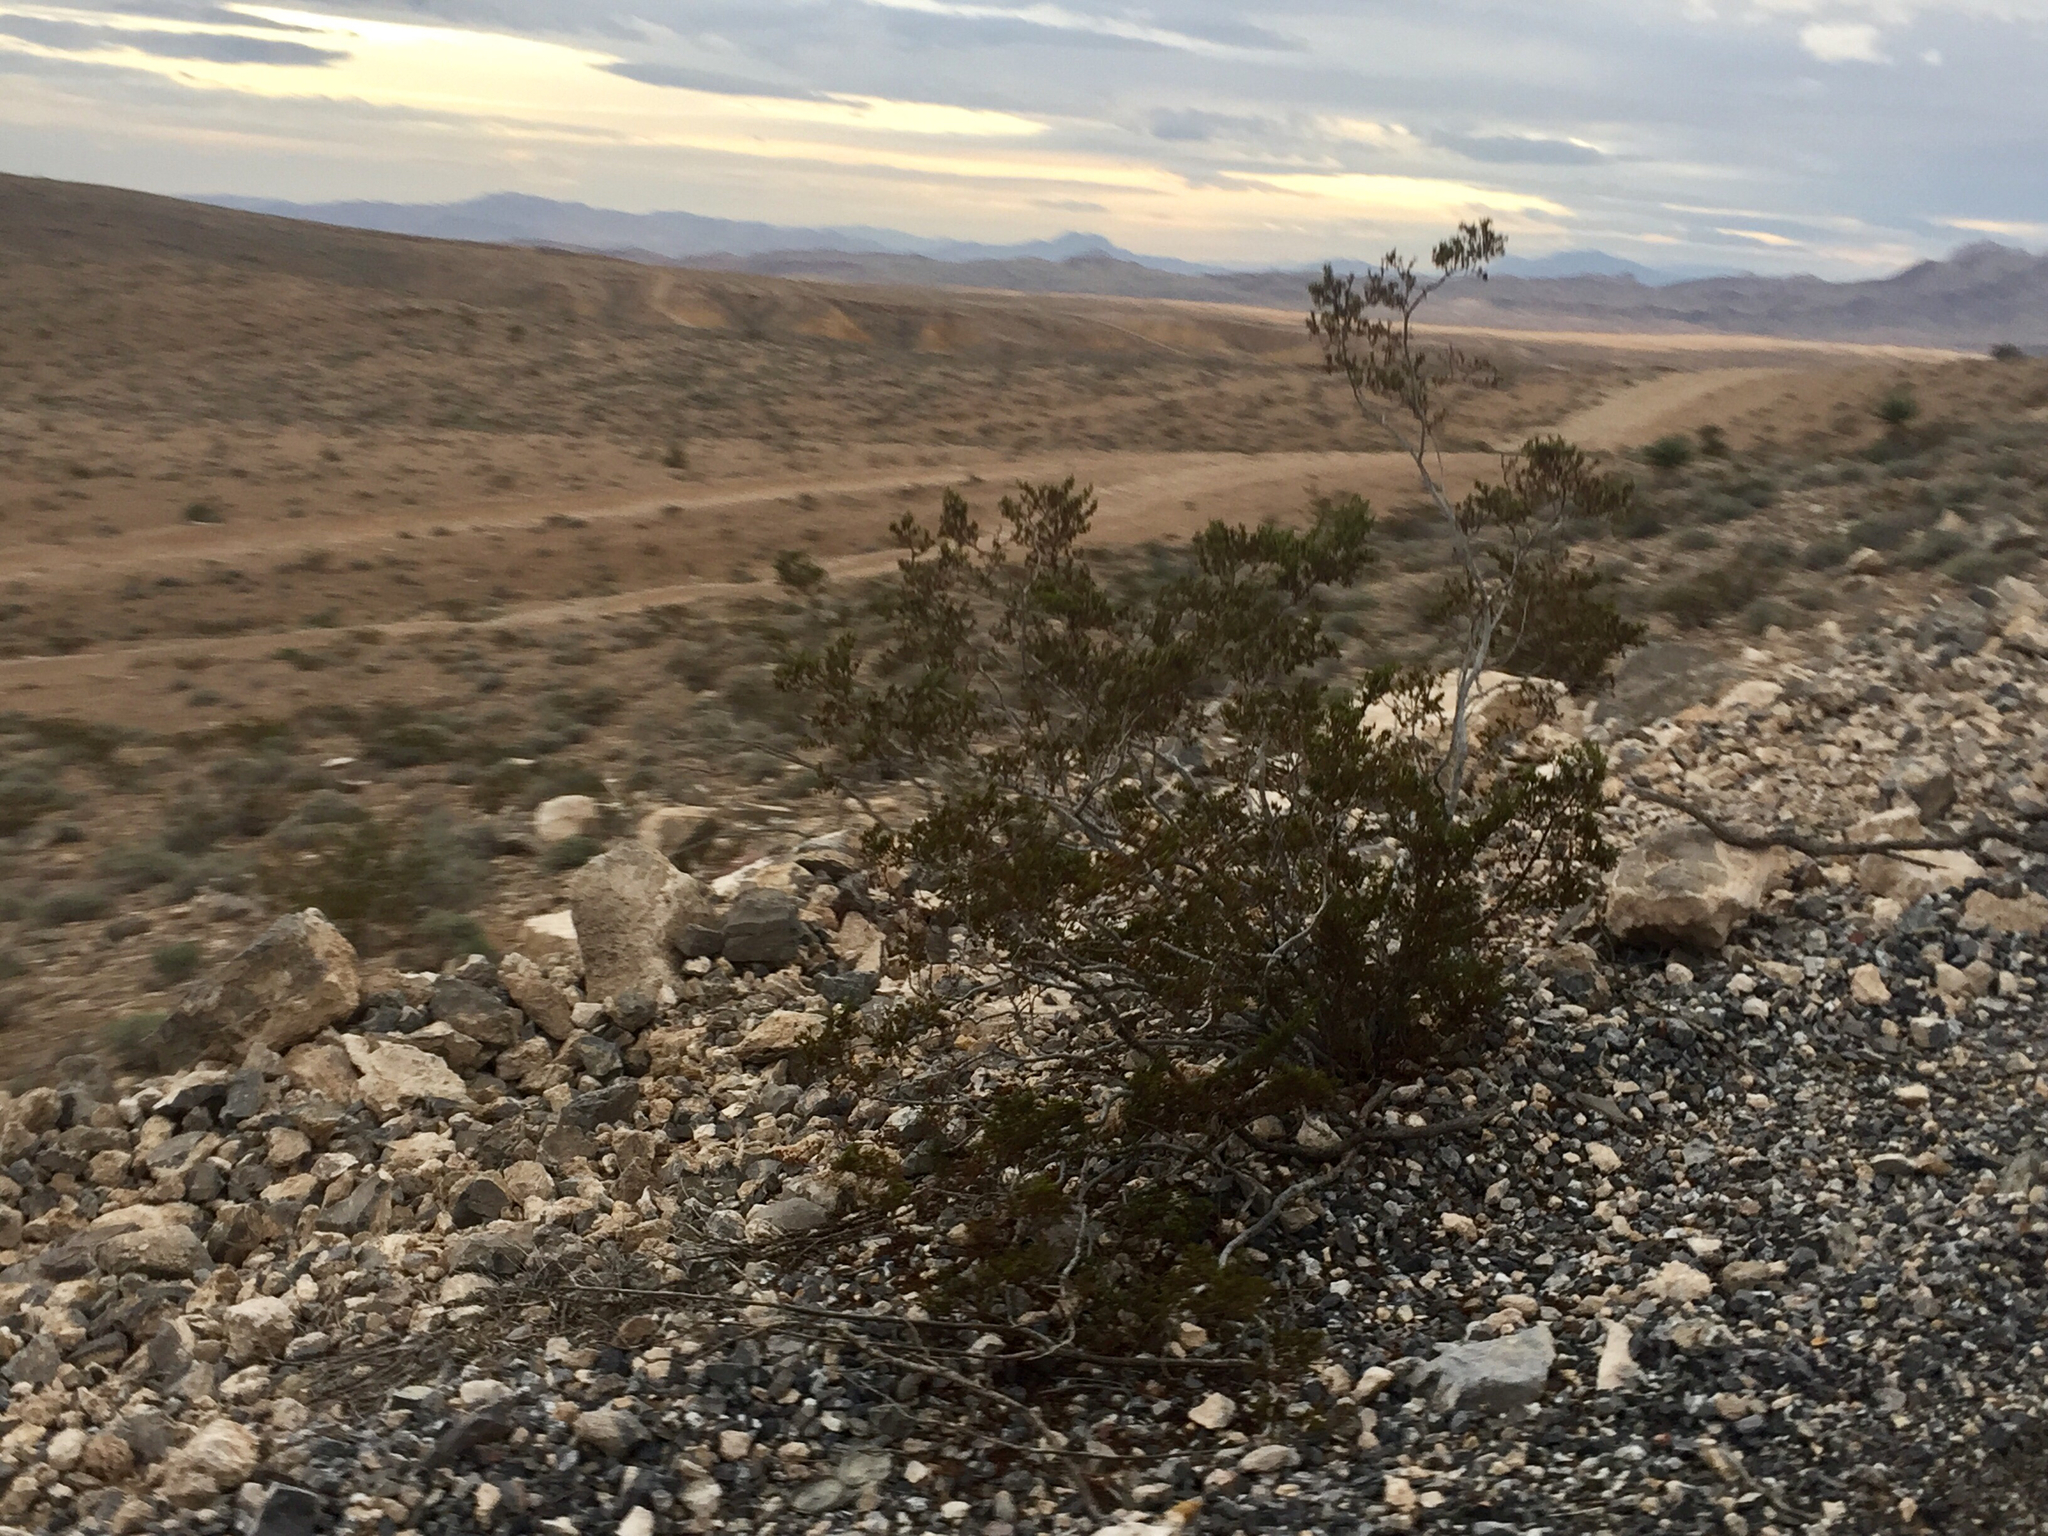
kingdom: Plantae
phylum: Tracheophyta
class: Magnoliopsida
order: Zygophyllales
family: Zygophyllaceae
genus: Larrea
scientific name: Larrea tridentata
